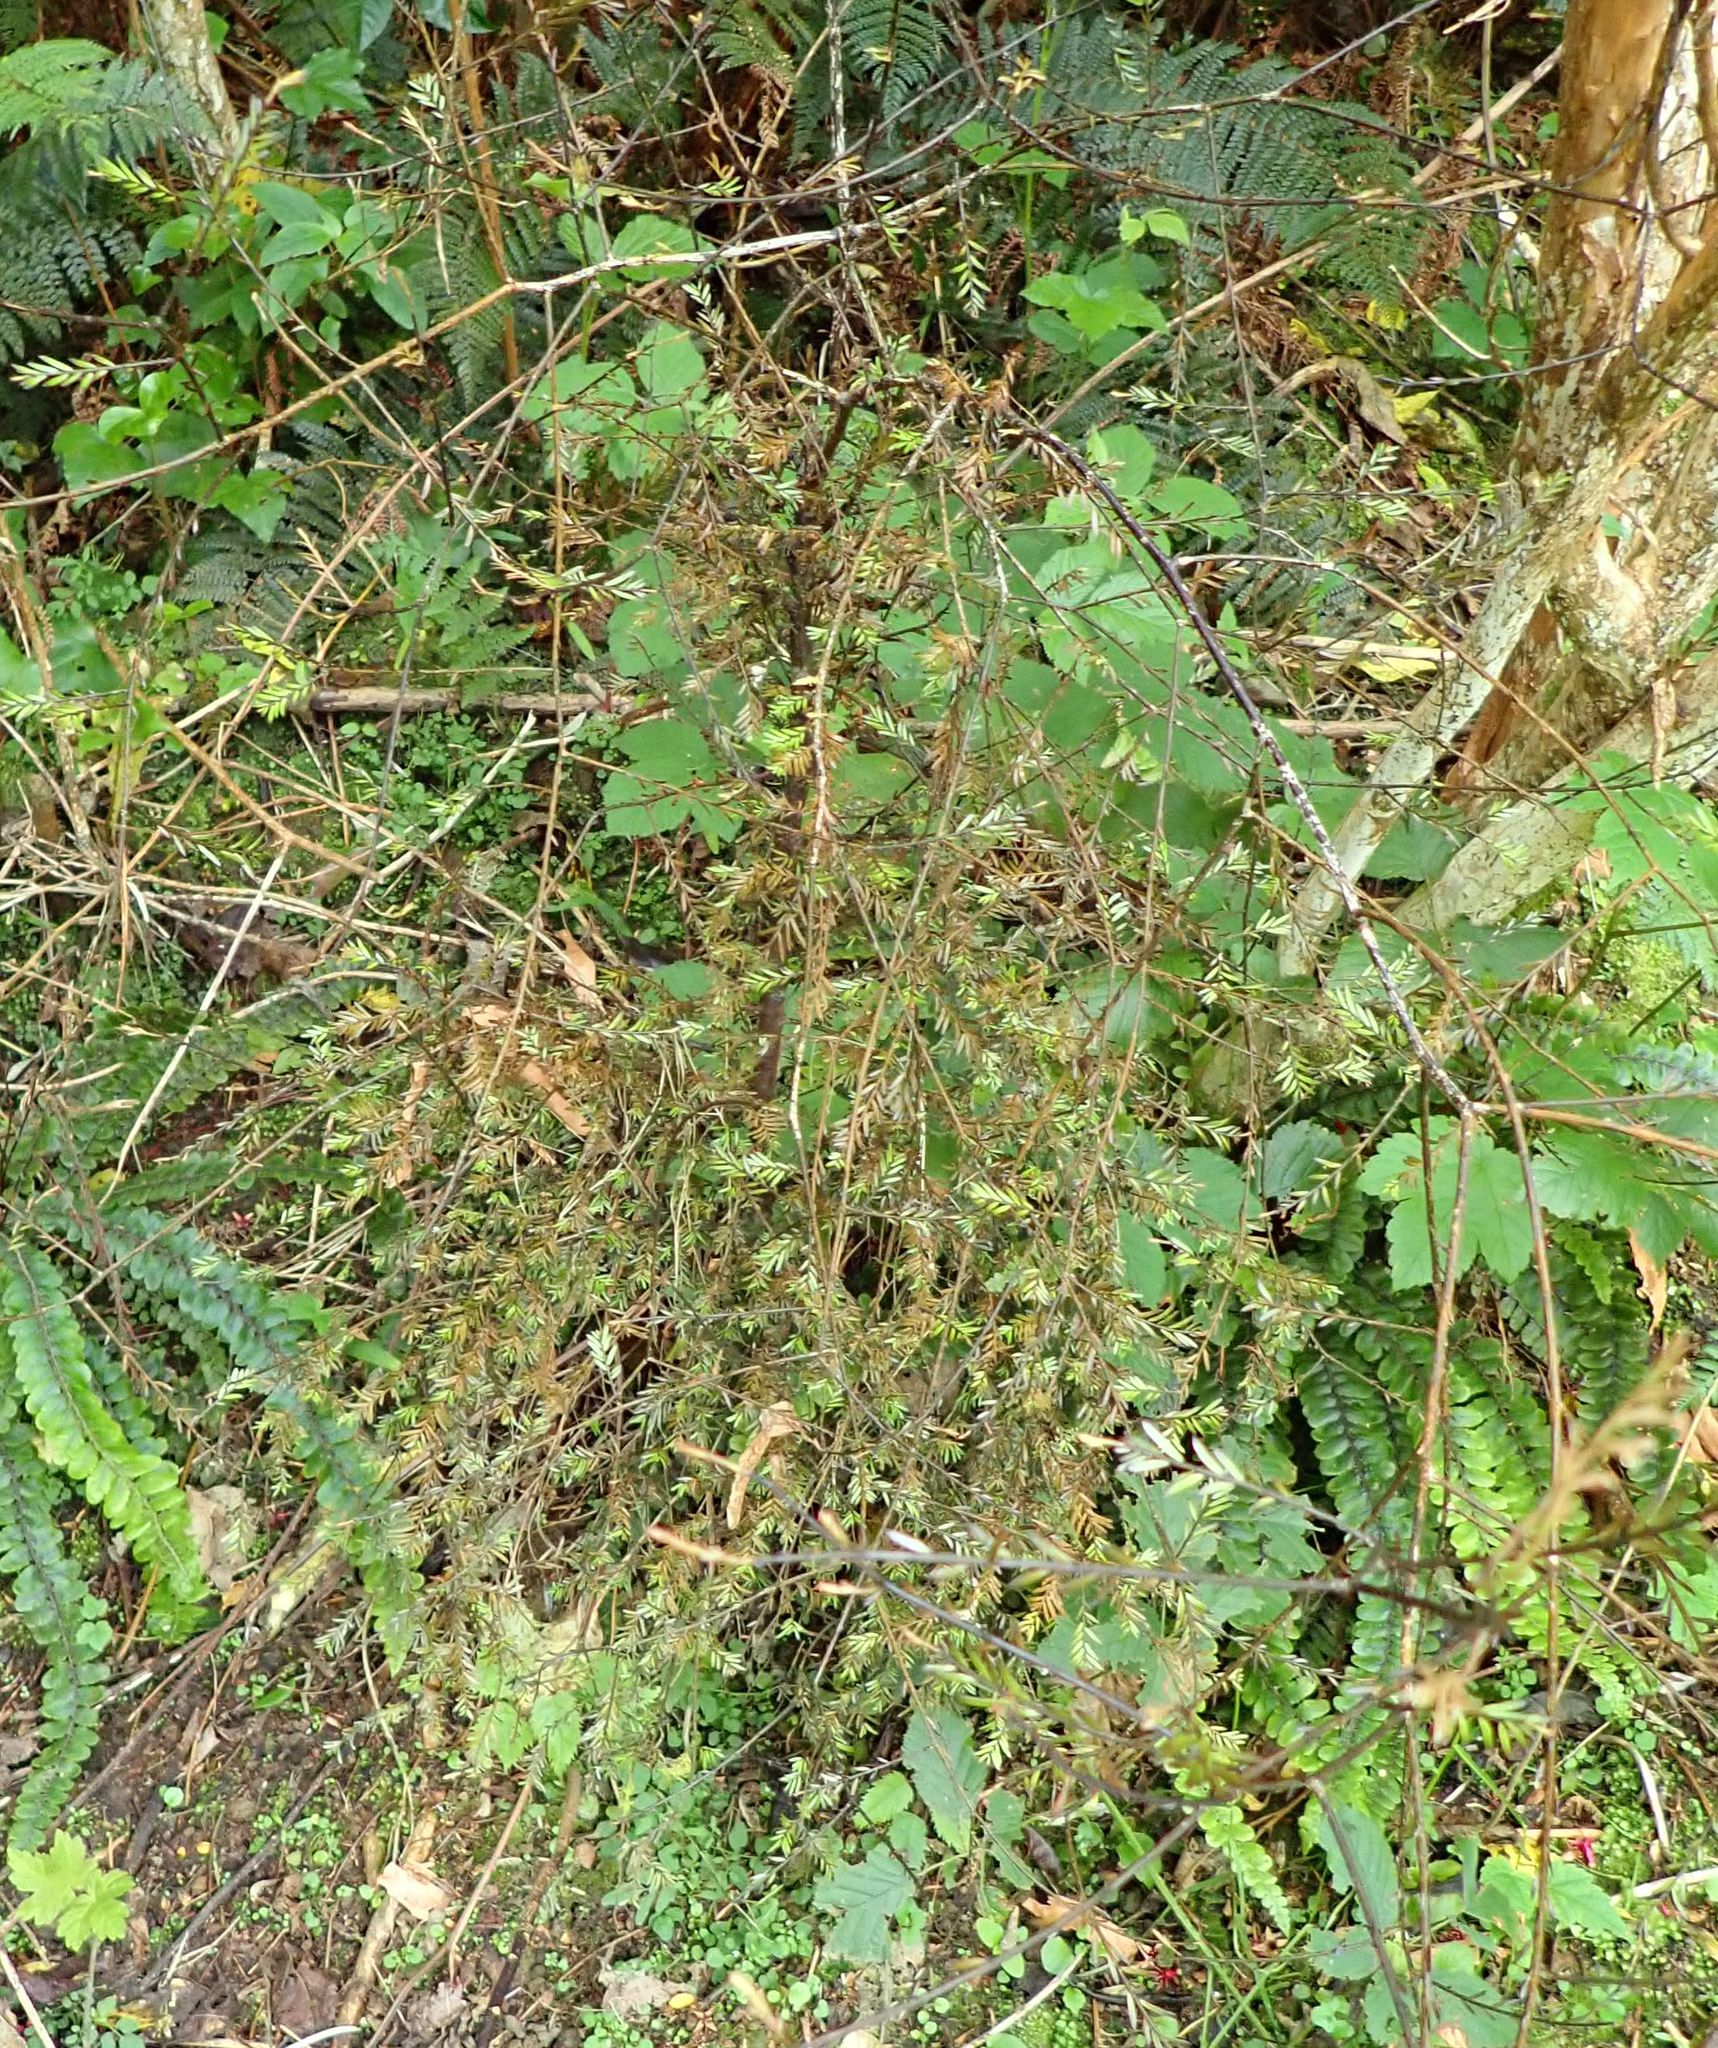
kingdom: Plantae
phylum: Tracheophyta
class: Pinopsida
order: Pinales
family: Podocarpaceae
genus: Prumnopitys
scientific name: Prumnopitys taxifolia
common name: Matai
